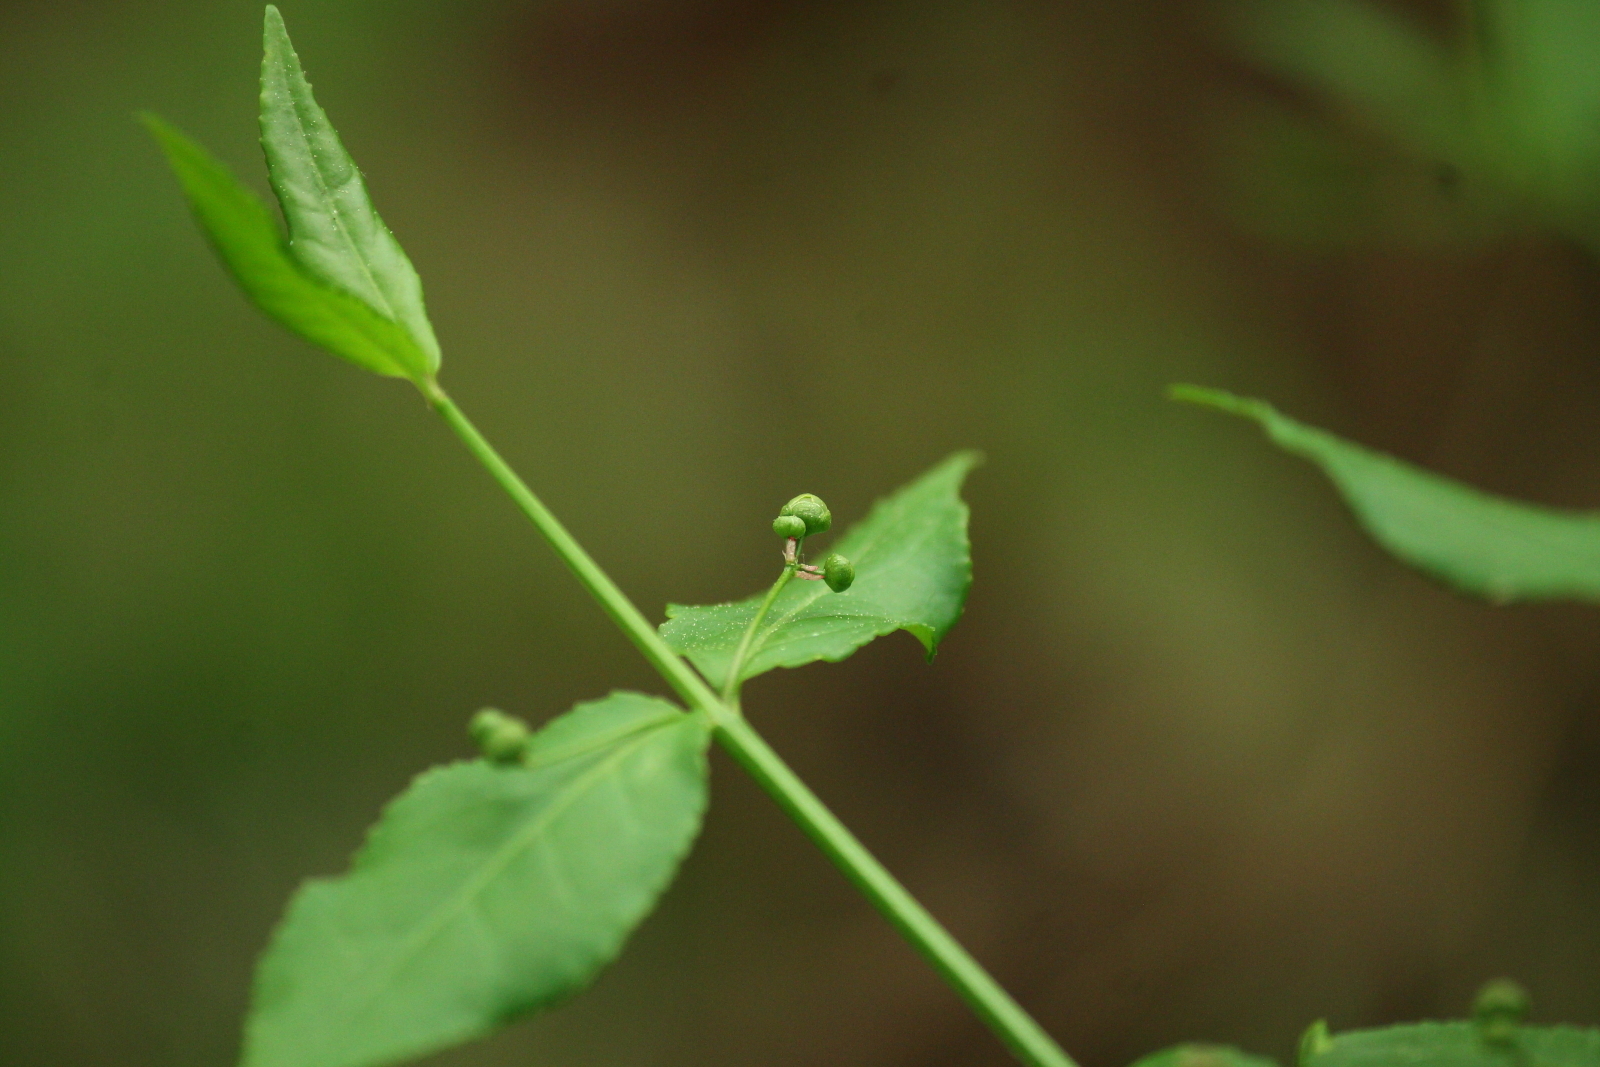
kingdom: Plantae
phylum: Tracheophyta
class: Magnoliopsida
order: Celastrales
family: Celastraceae
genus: Euonymus
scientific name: Euonymus americanus
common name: Bursting-heart
